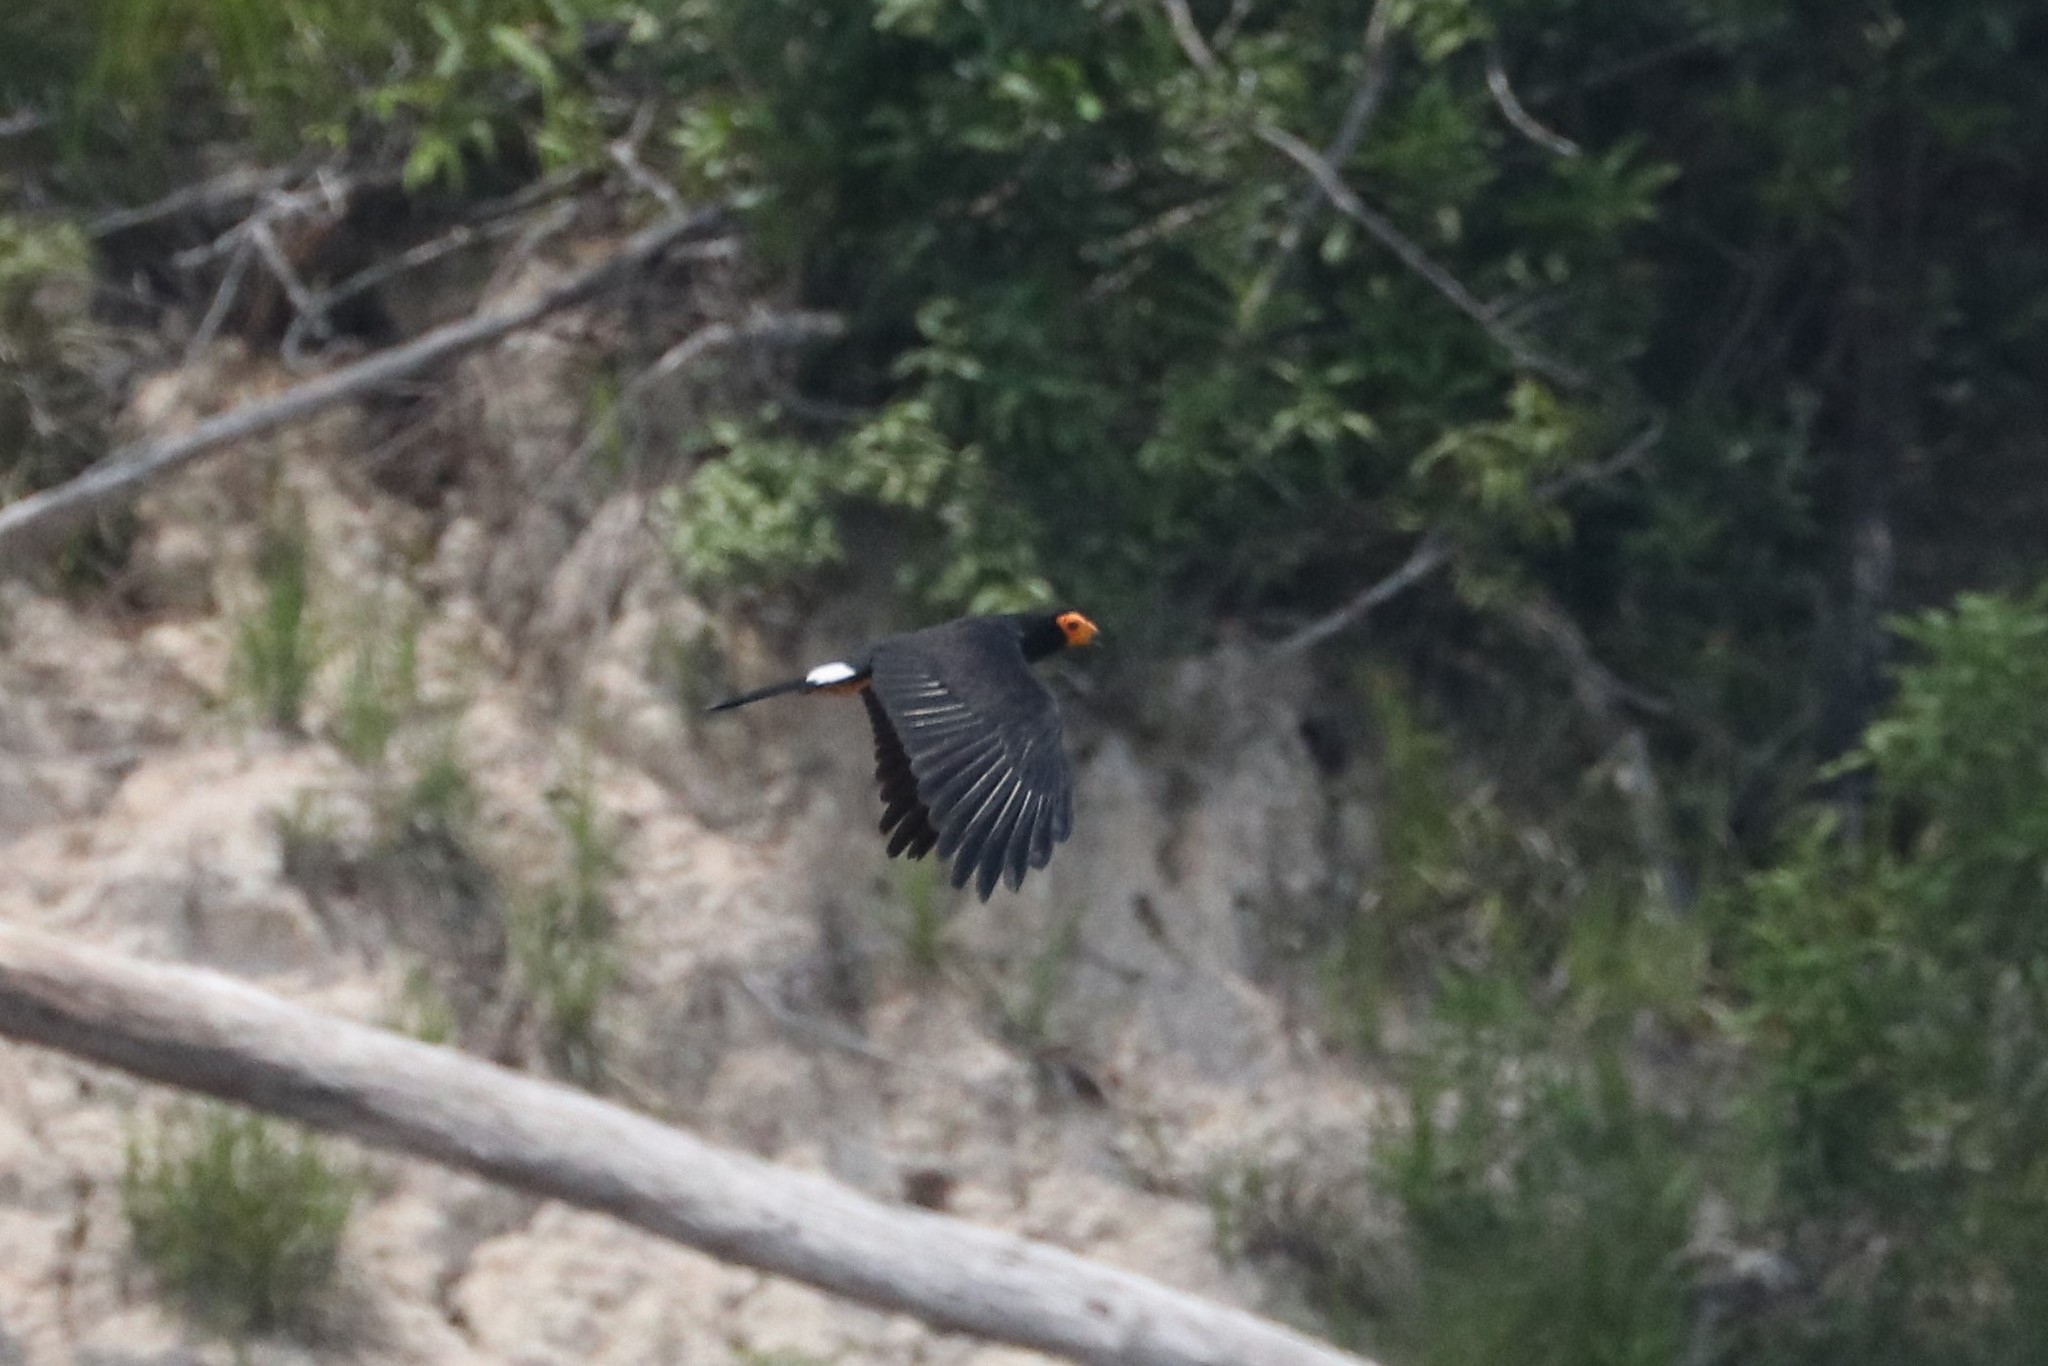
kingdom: Animalia
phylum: Chordata
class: Aves
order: Falconiformes
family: Falconidae
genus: Daptrius
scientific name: Daptrius ater
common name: Black caracara
